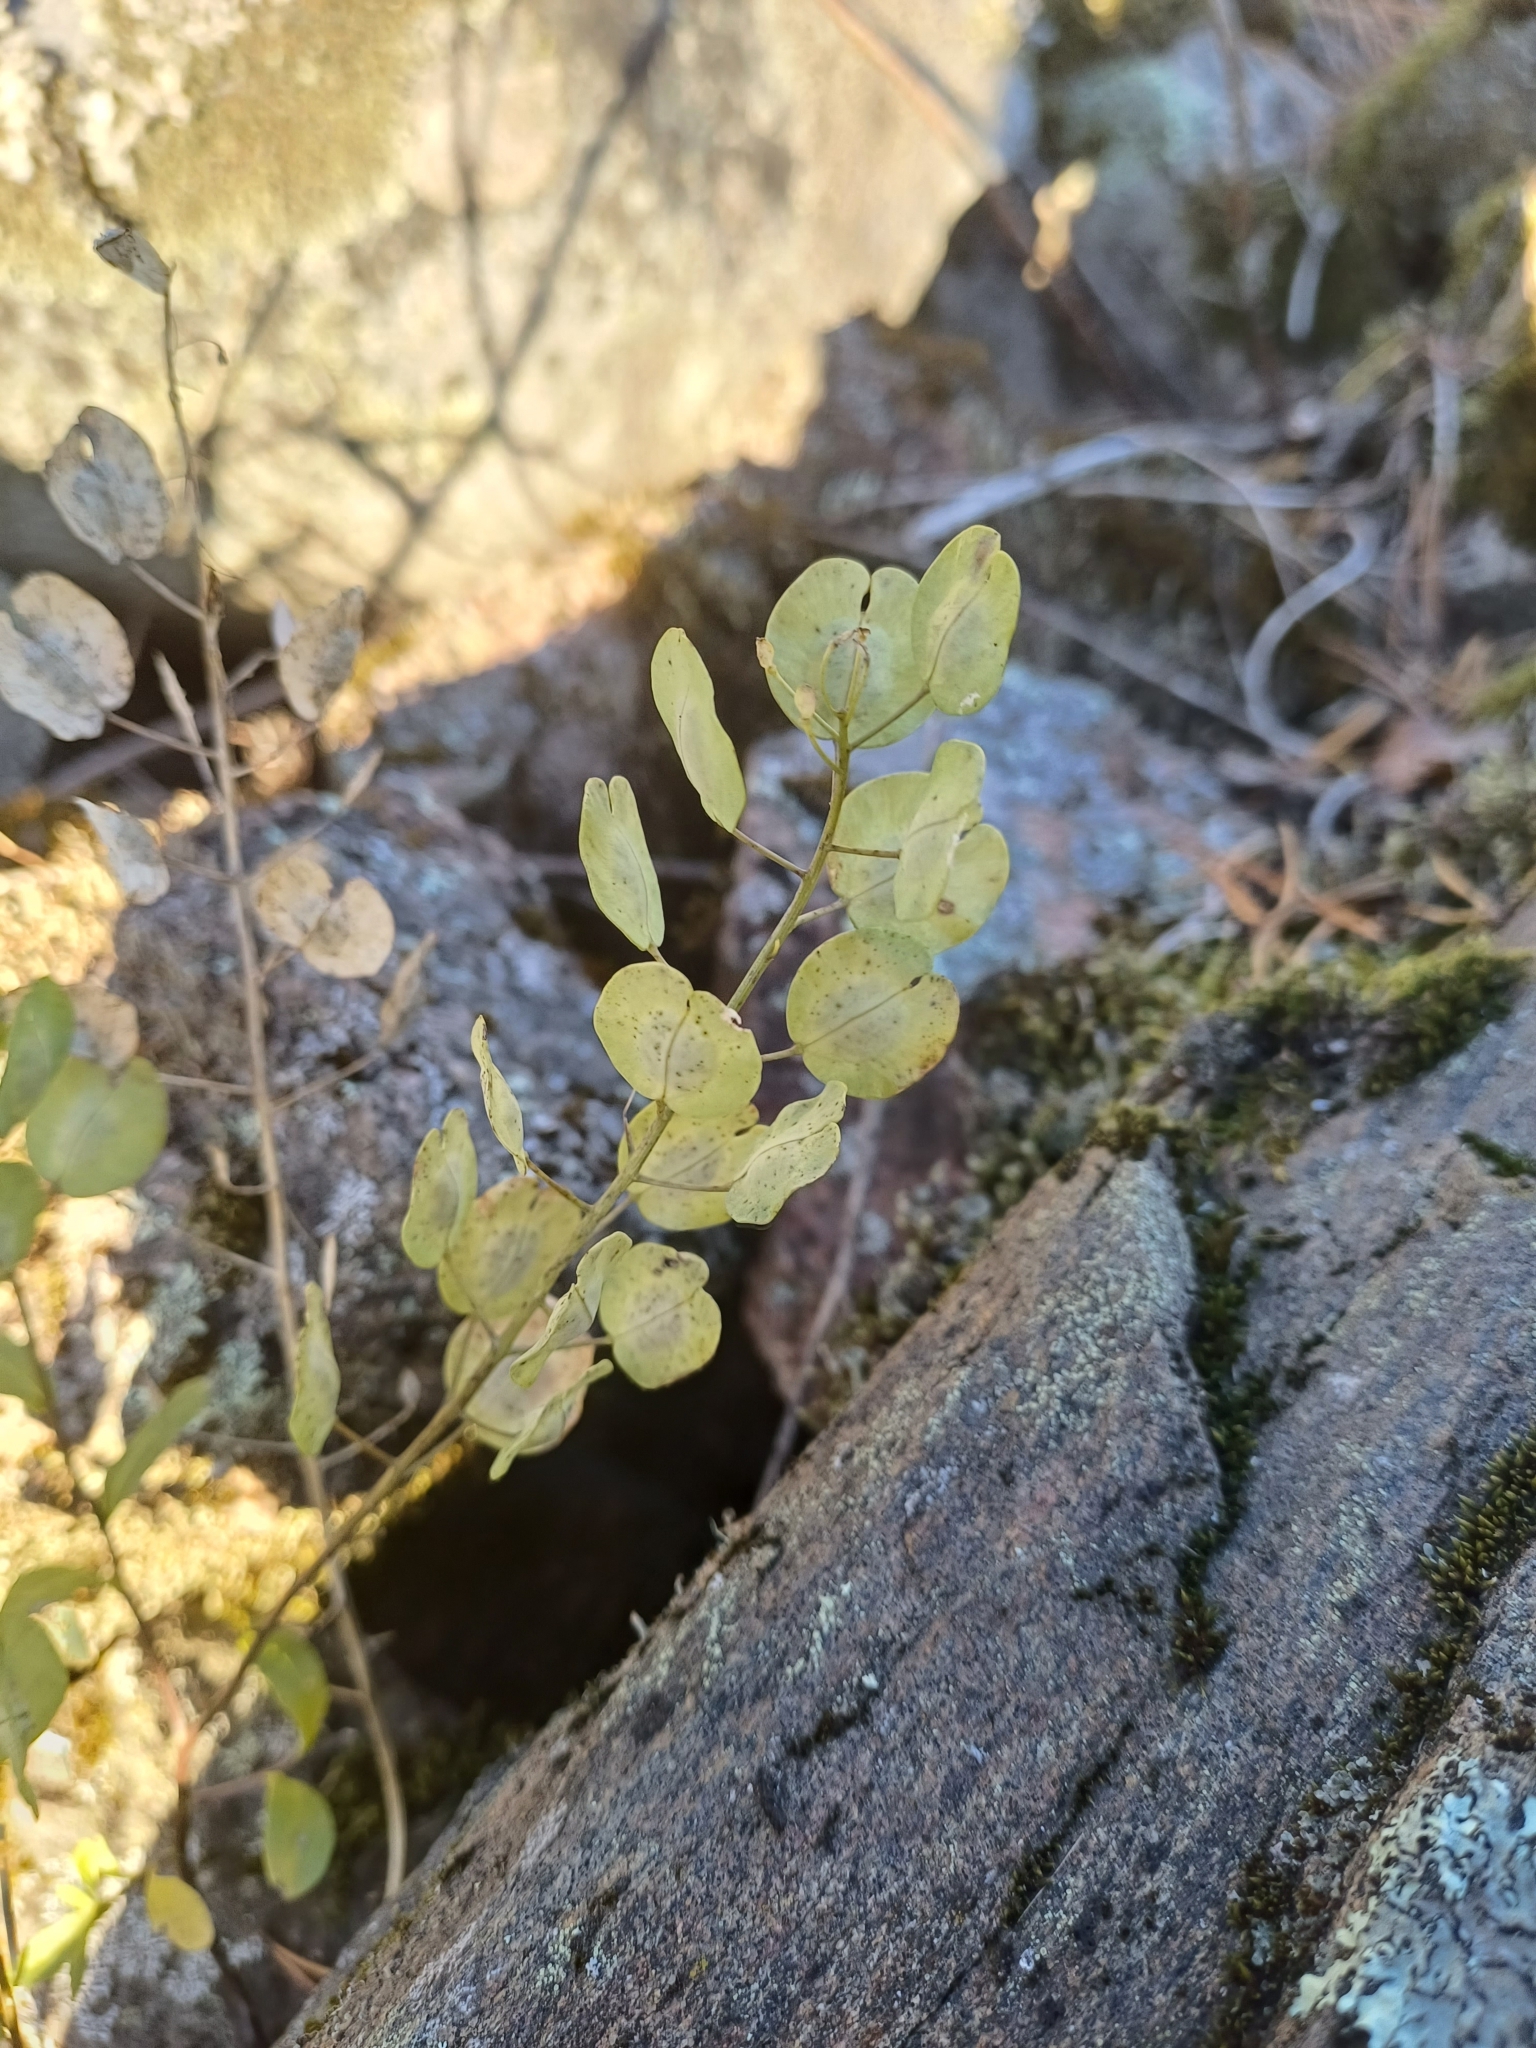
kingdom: Plantae
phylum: Tracheophyta
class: Magnoliopsida
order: Brassicales
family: Brassicaceae
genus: Thlaspi
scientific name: Thlaspi arvense
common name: Field pennycress
